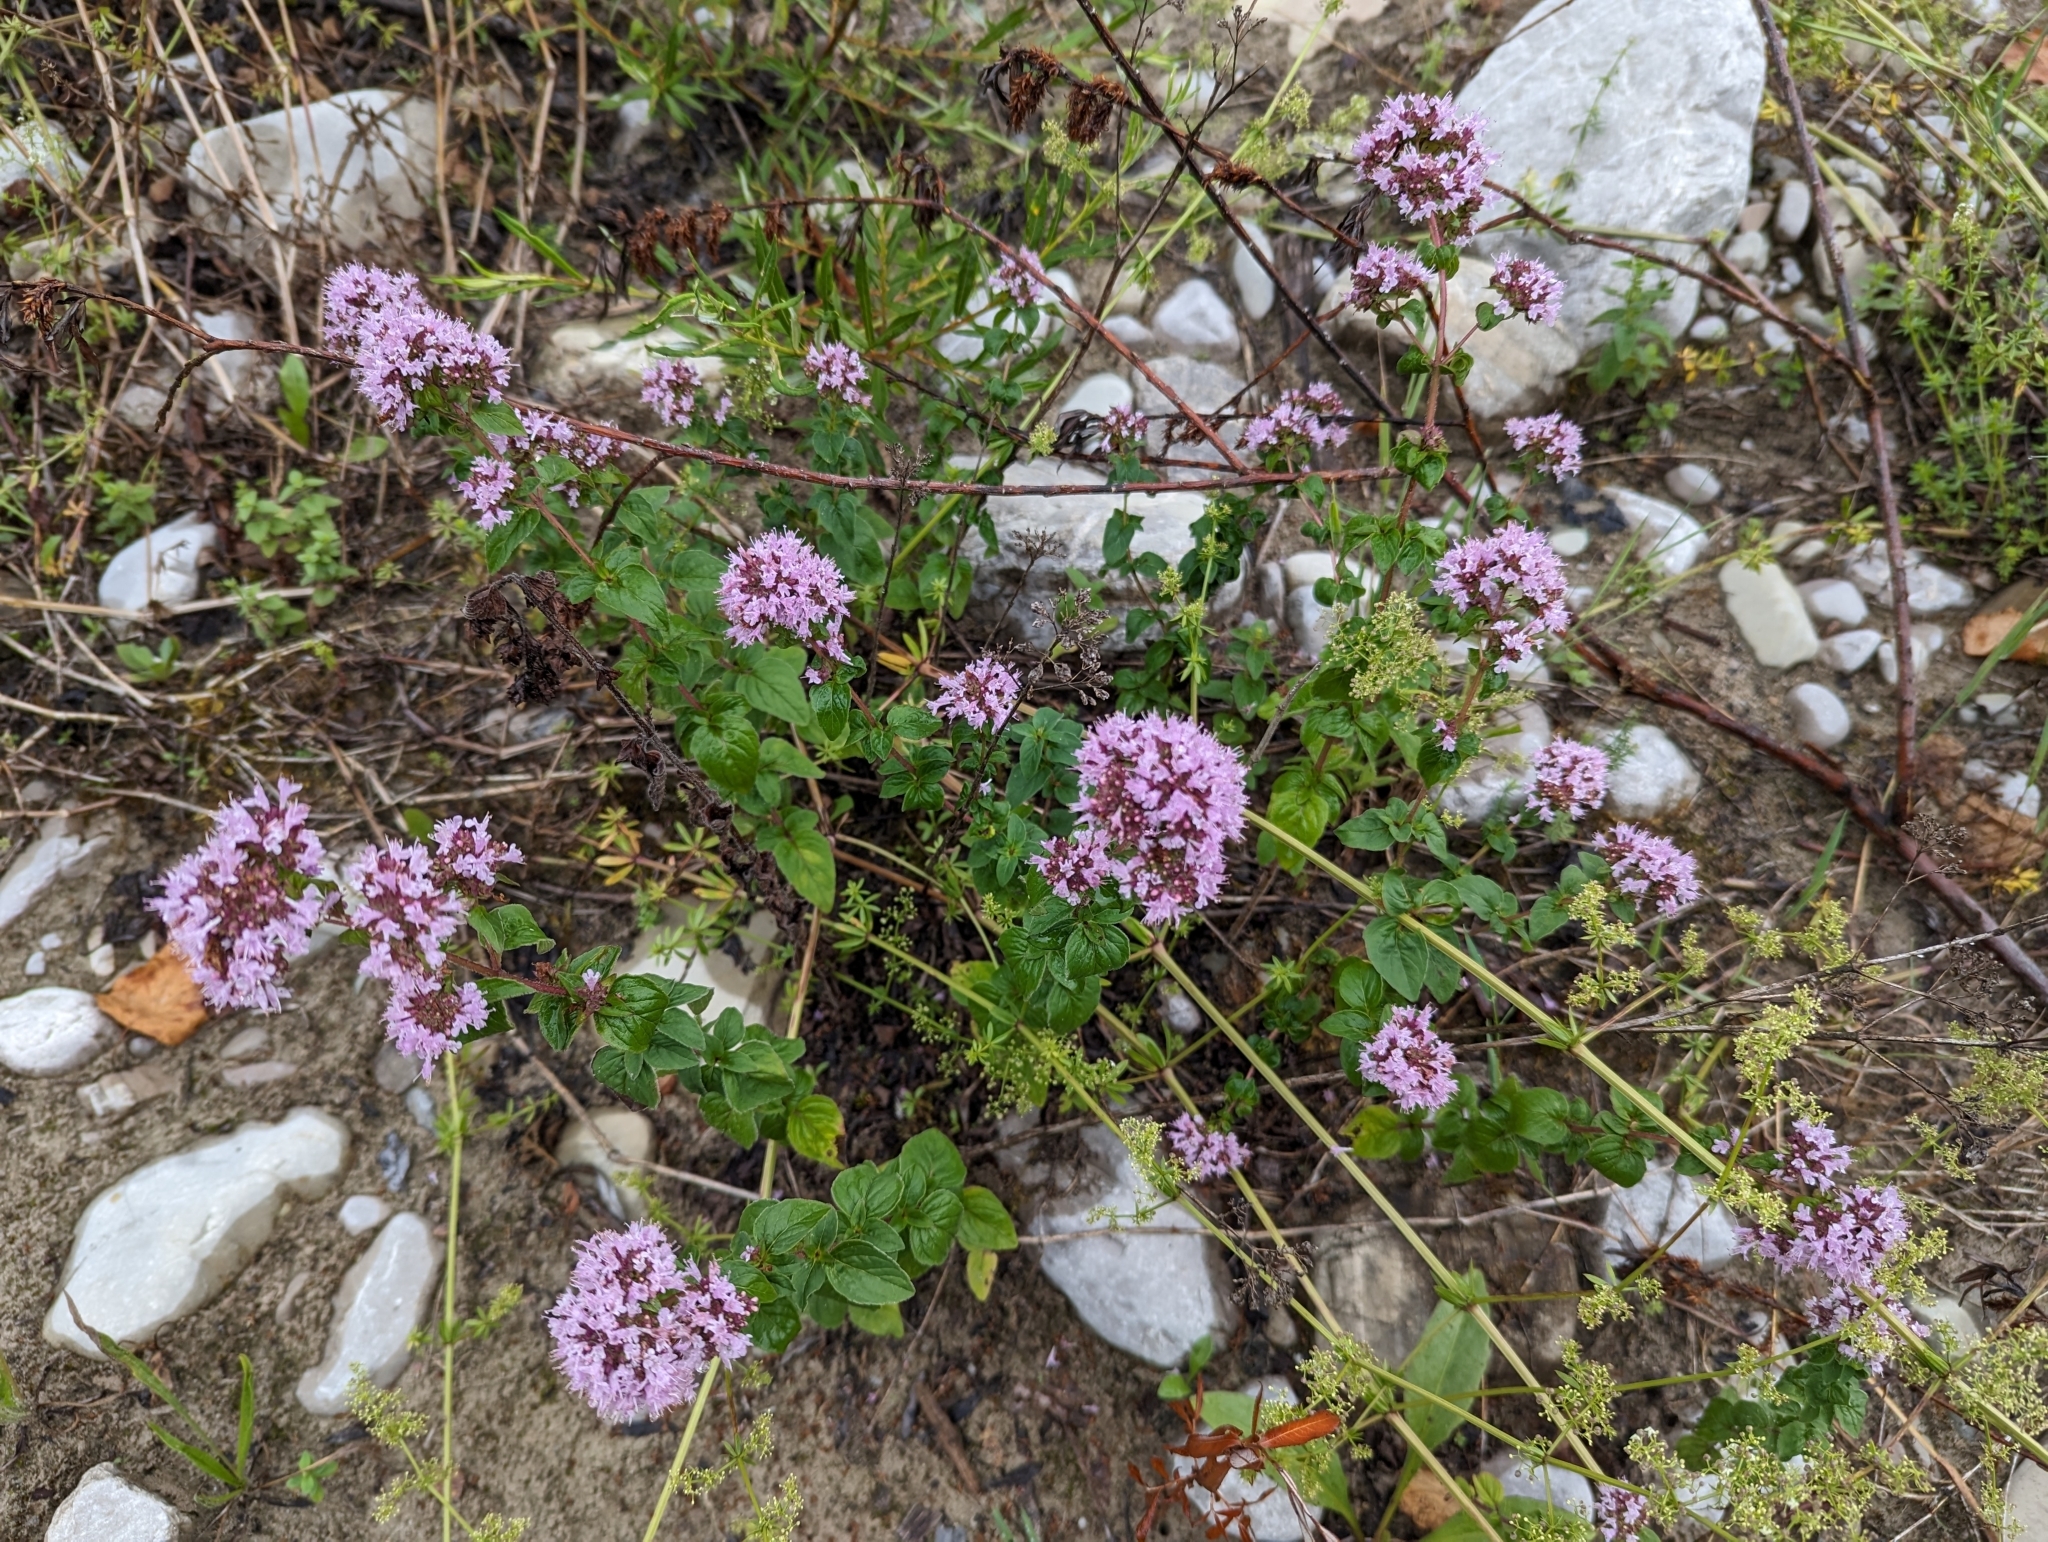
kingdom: Plantae
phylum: Tracheophyta
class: Magnoliopsida
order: Lamiales
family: Lamiaceae
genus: Origanum
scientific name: Origanum vulgare
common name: Wild marjoram
